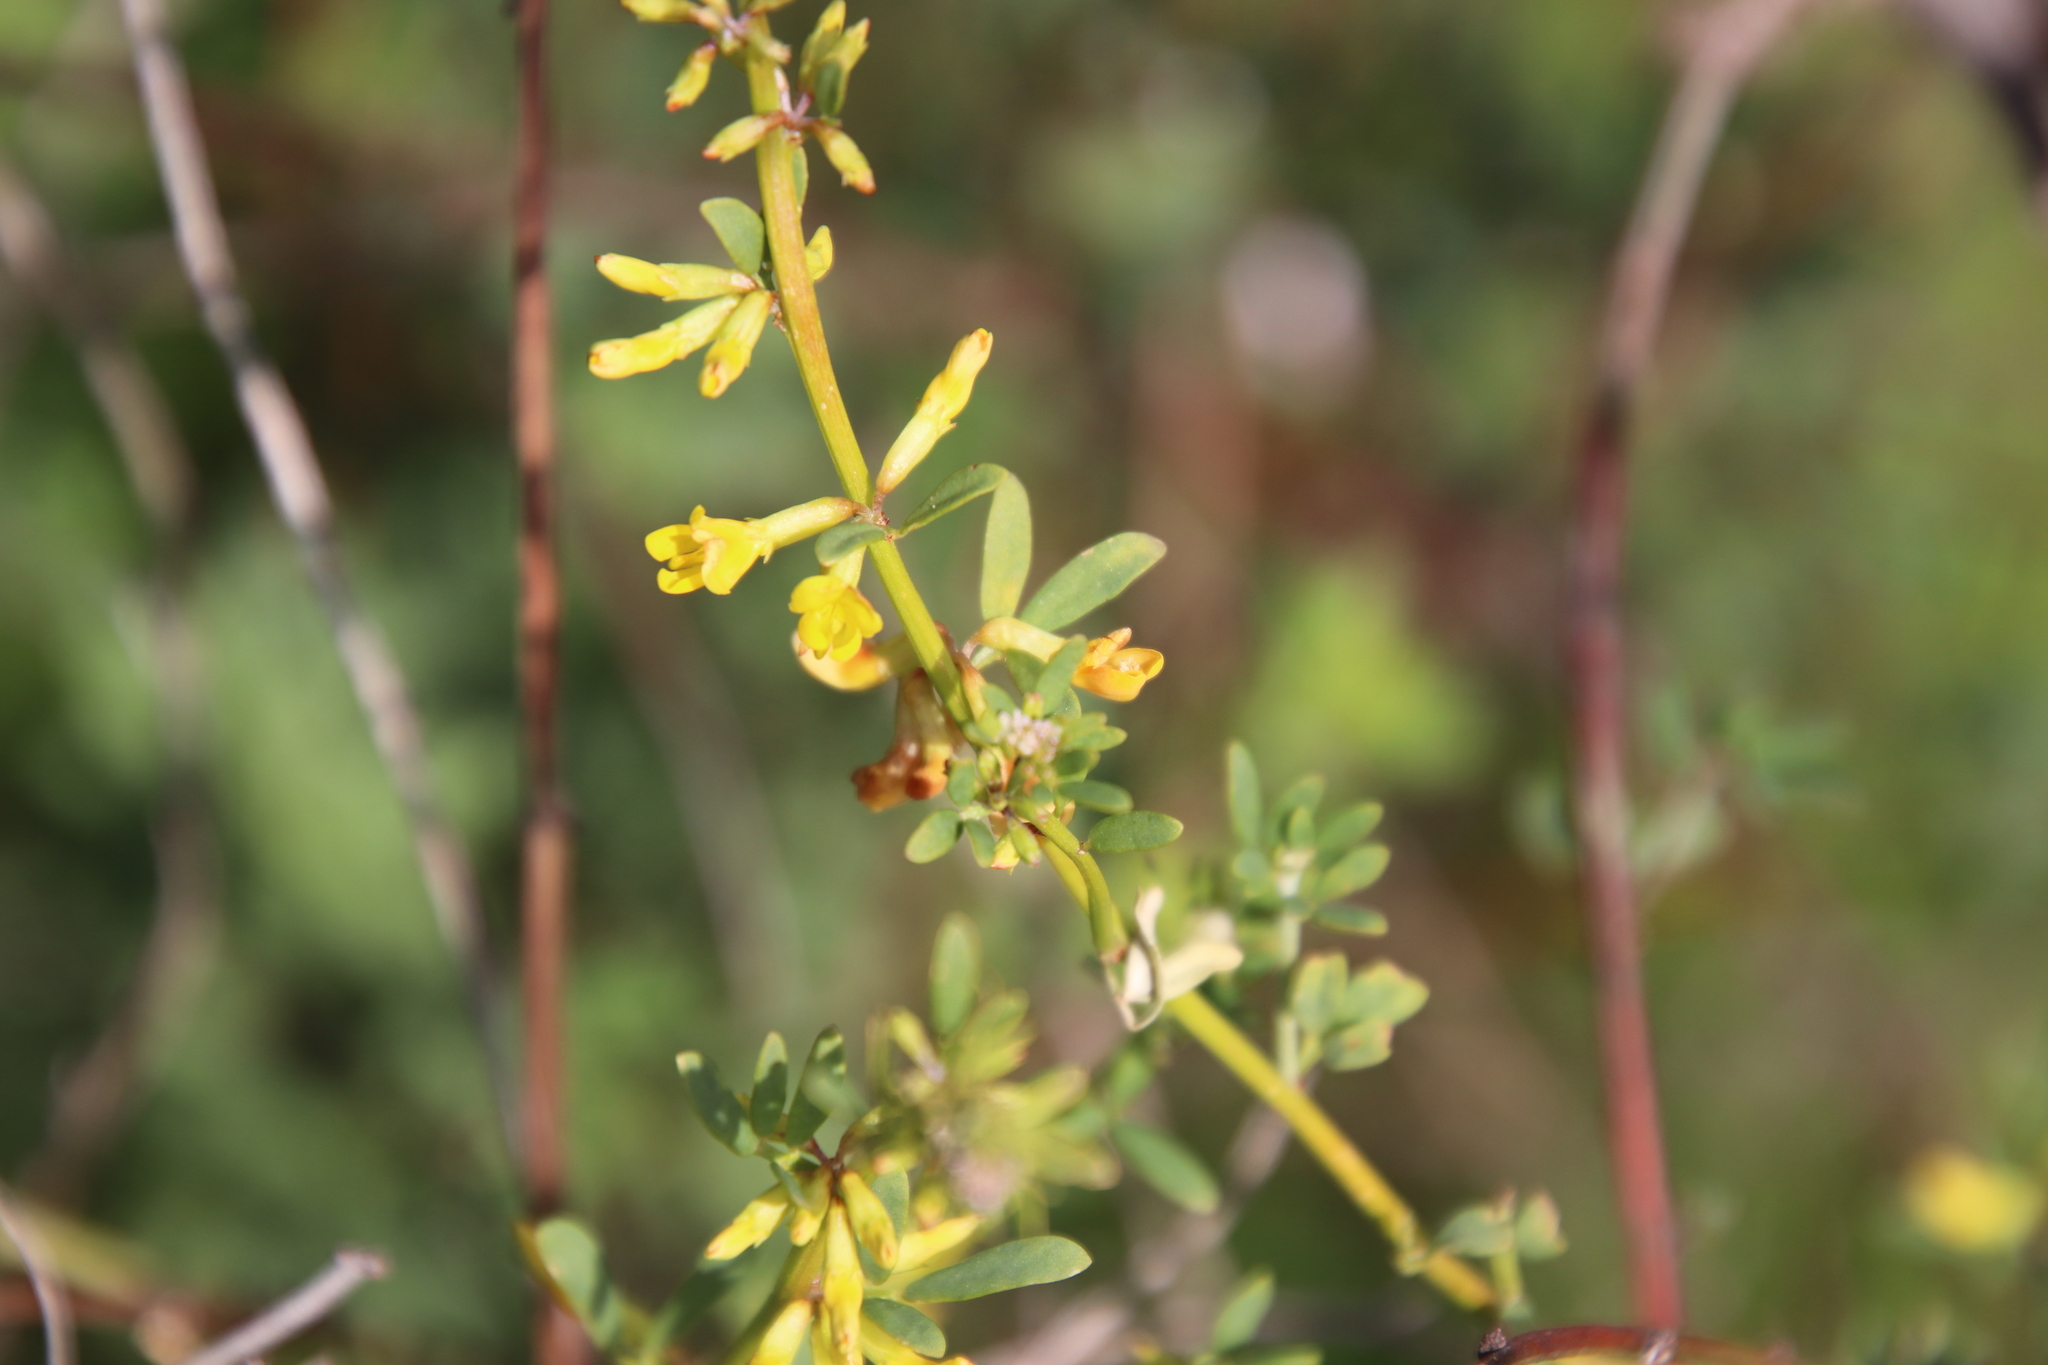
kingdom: Plantae
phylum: Tracheophyta
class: Magnoliopsida
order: Fabales
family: Fabaceae
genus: Acmispon
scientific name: Acmispon glaber
